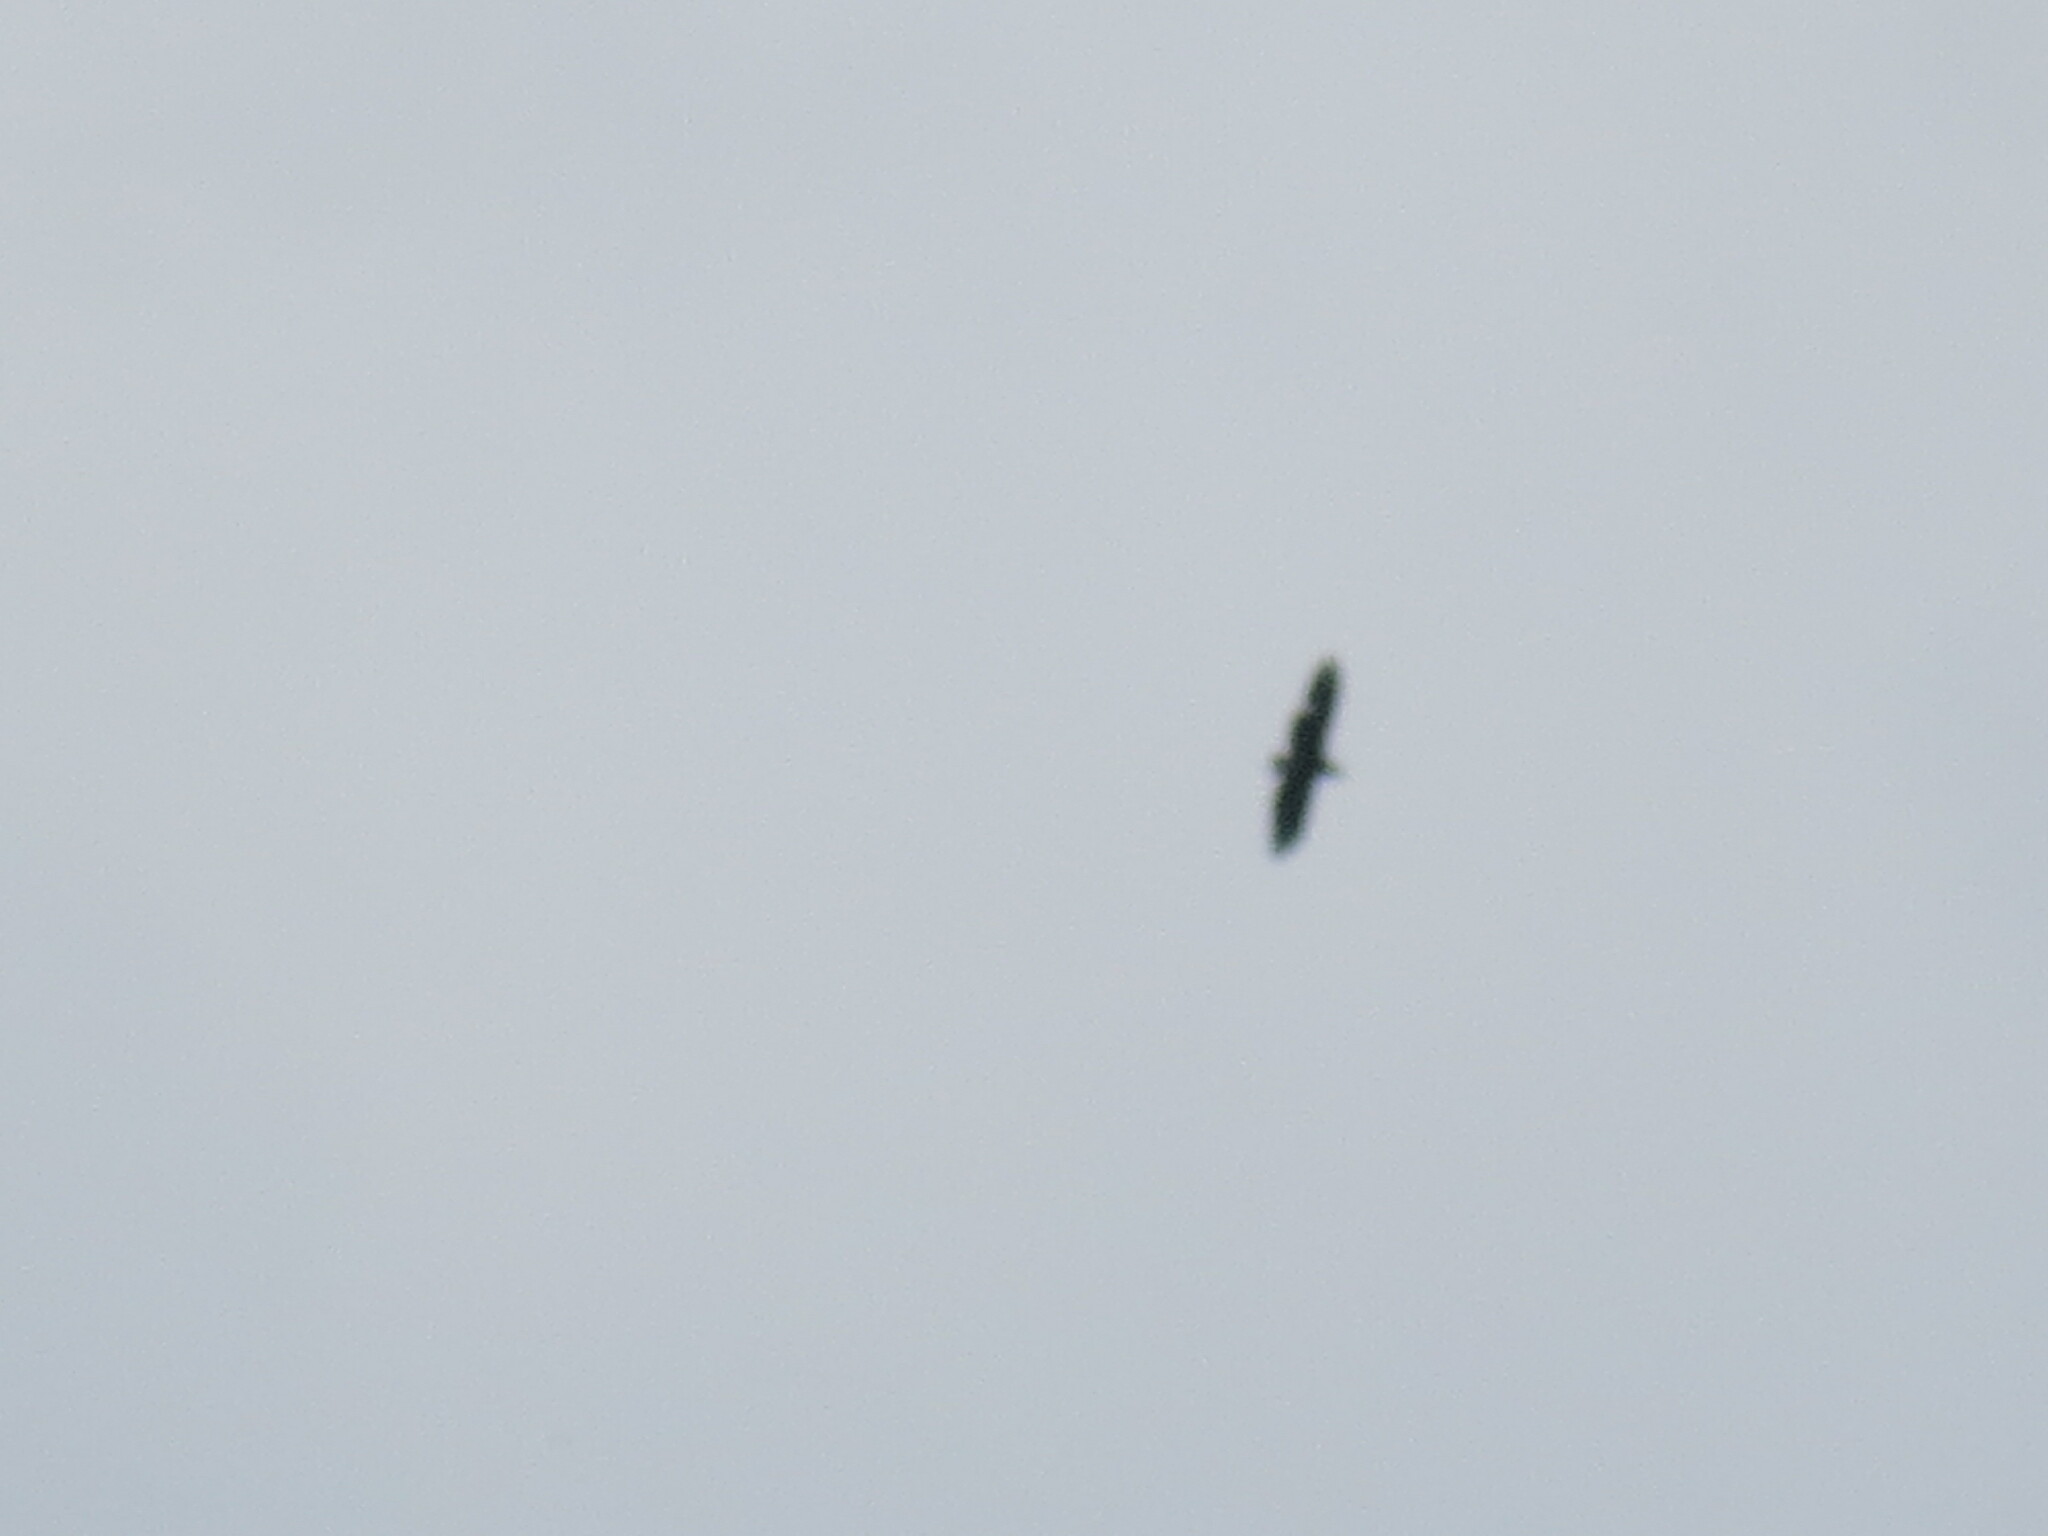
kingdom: Animalia
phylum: Chordata
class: Aves
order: Accipitriformes
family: Cathartidae
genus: Coragyps
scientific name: Coragyps atratus
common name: Black vulture
